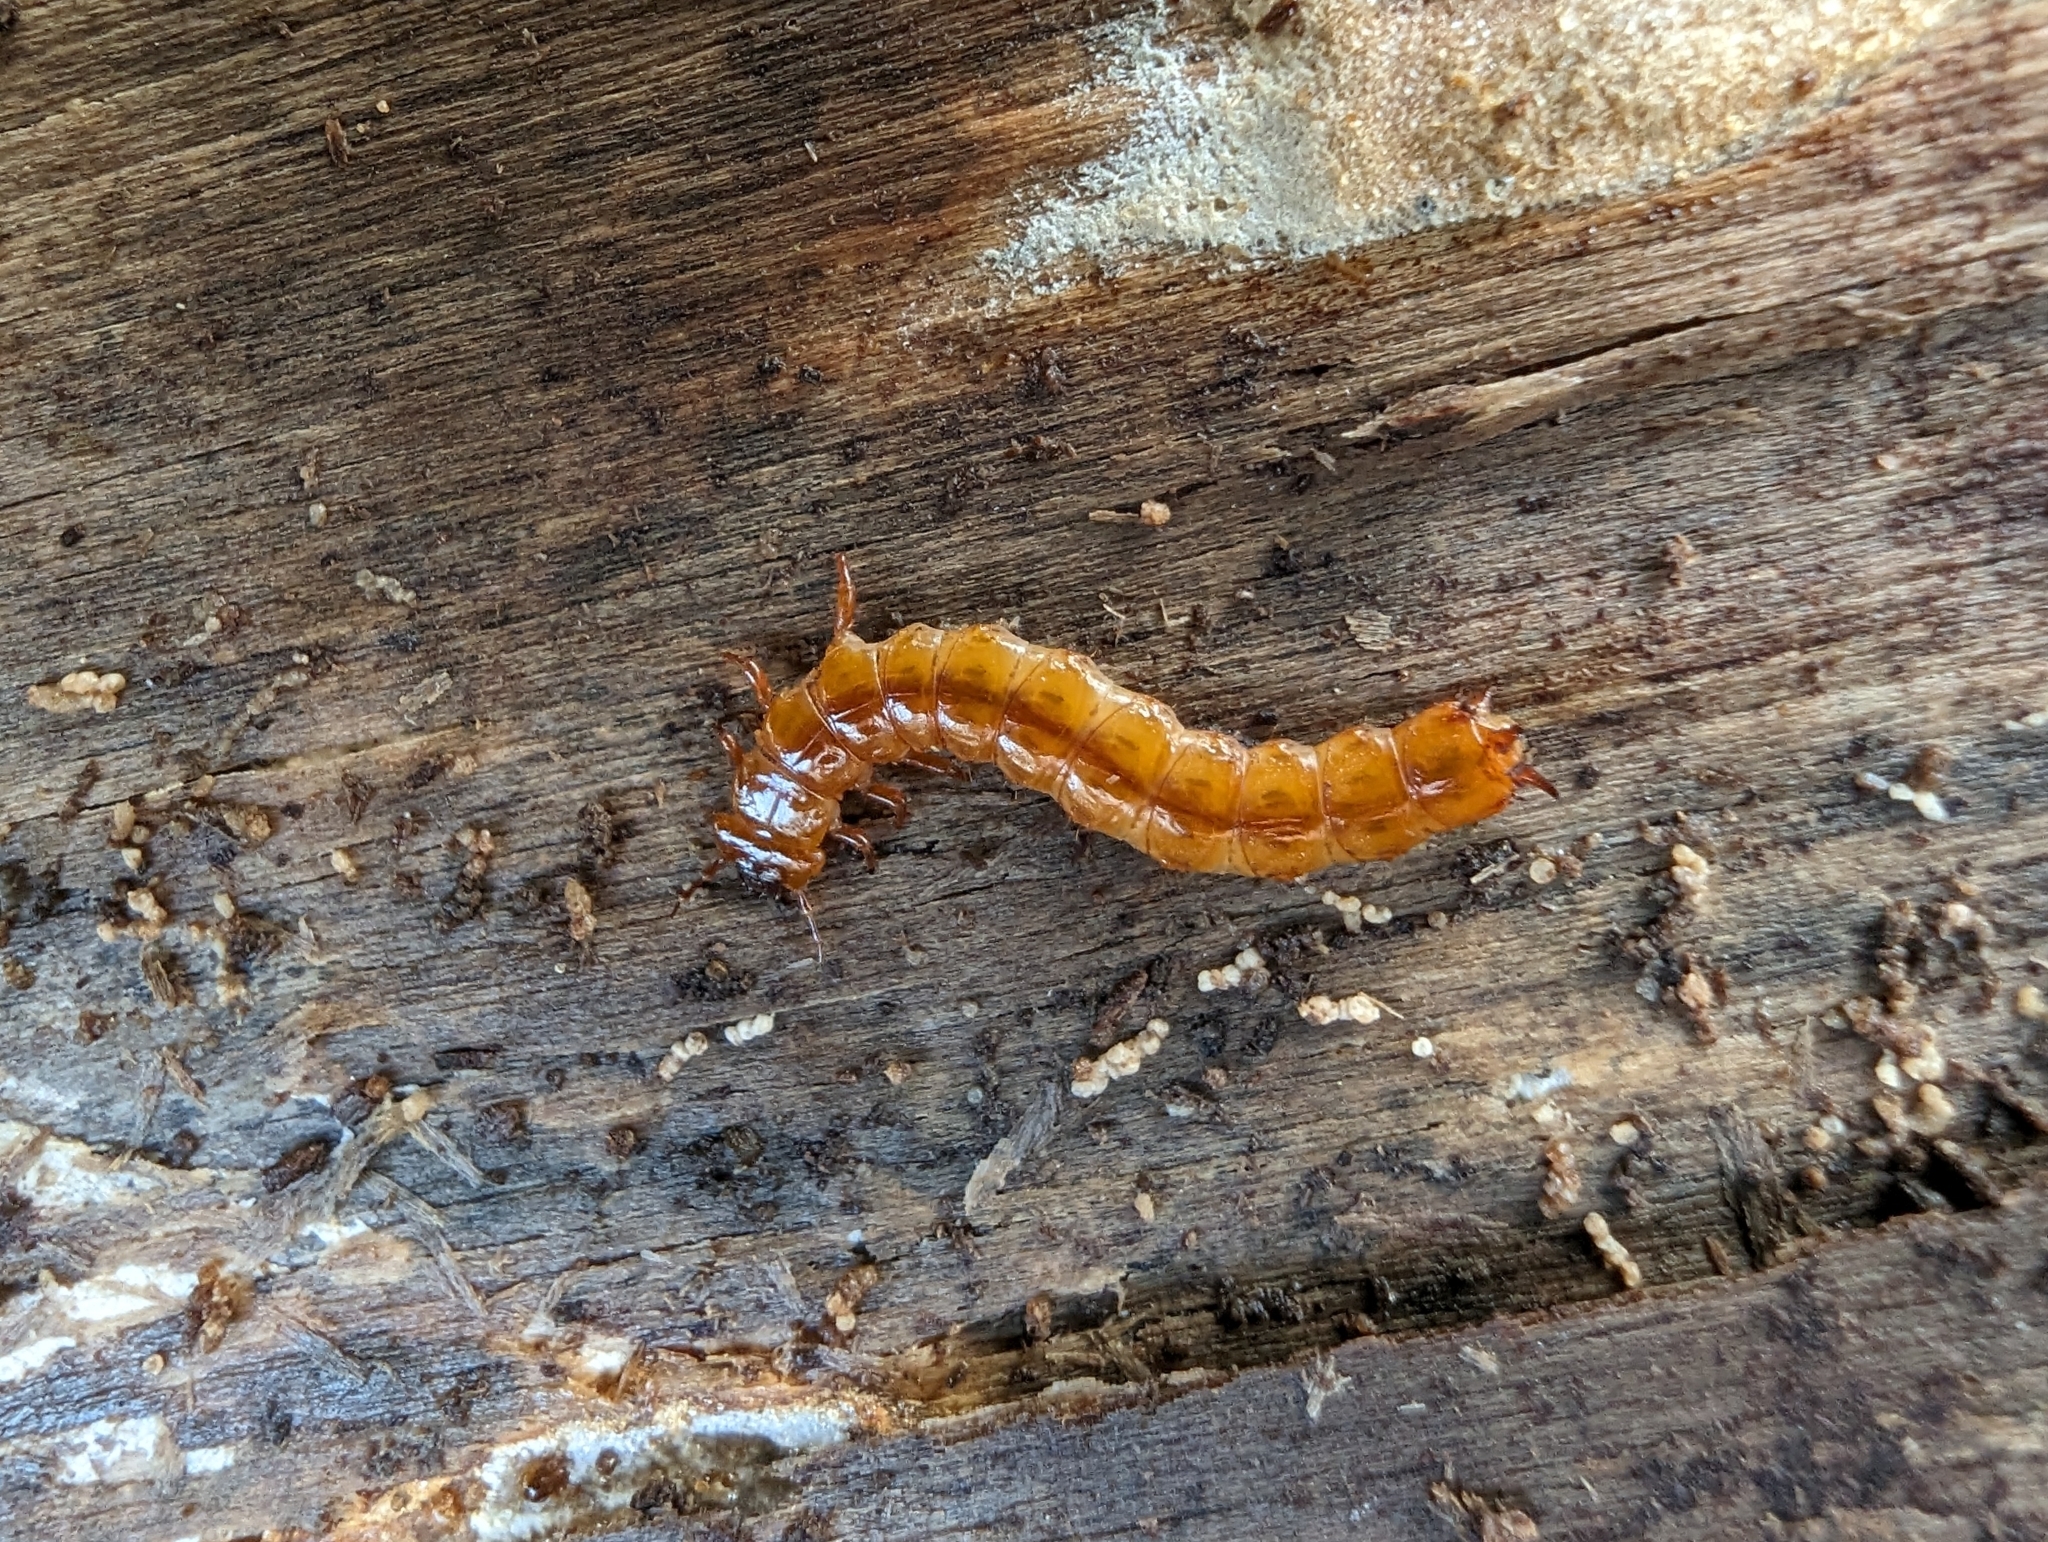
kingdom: Animalia
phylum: Arthropoda
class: Insecta
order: Coleoptera
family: Cucujidae
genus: Cucujus
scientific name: Cucujus cinnaberinus
